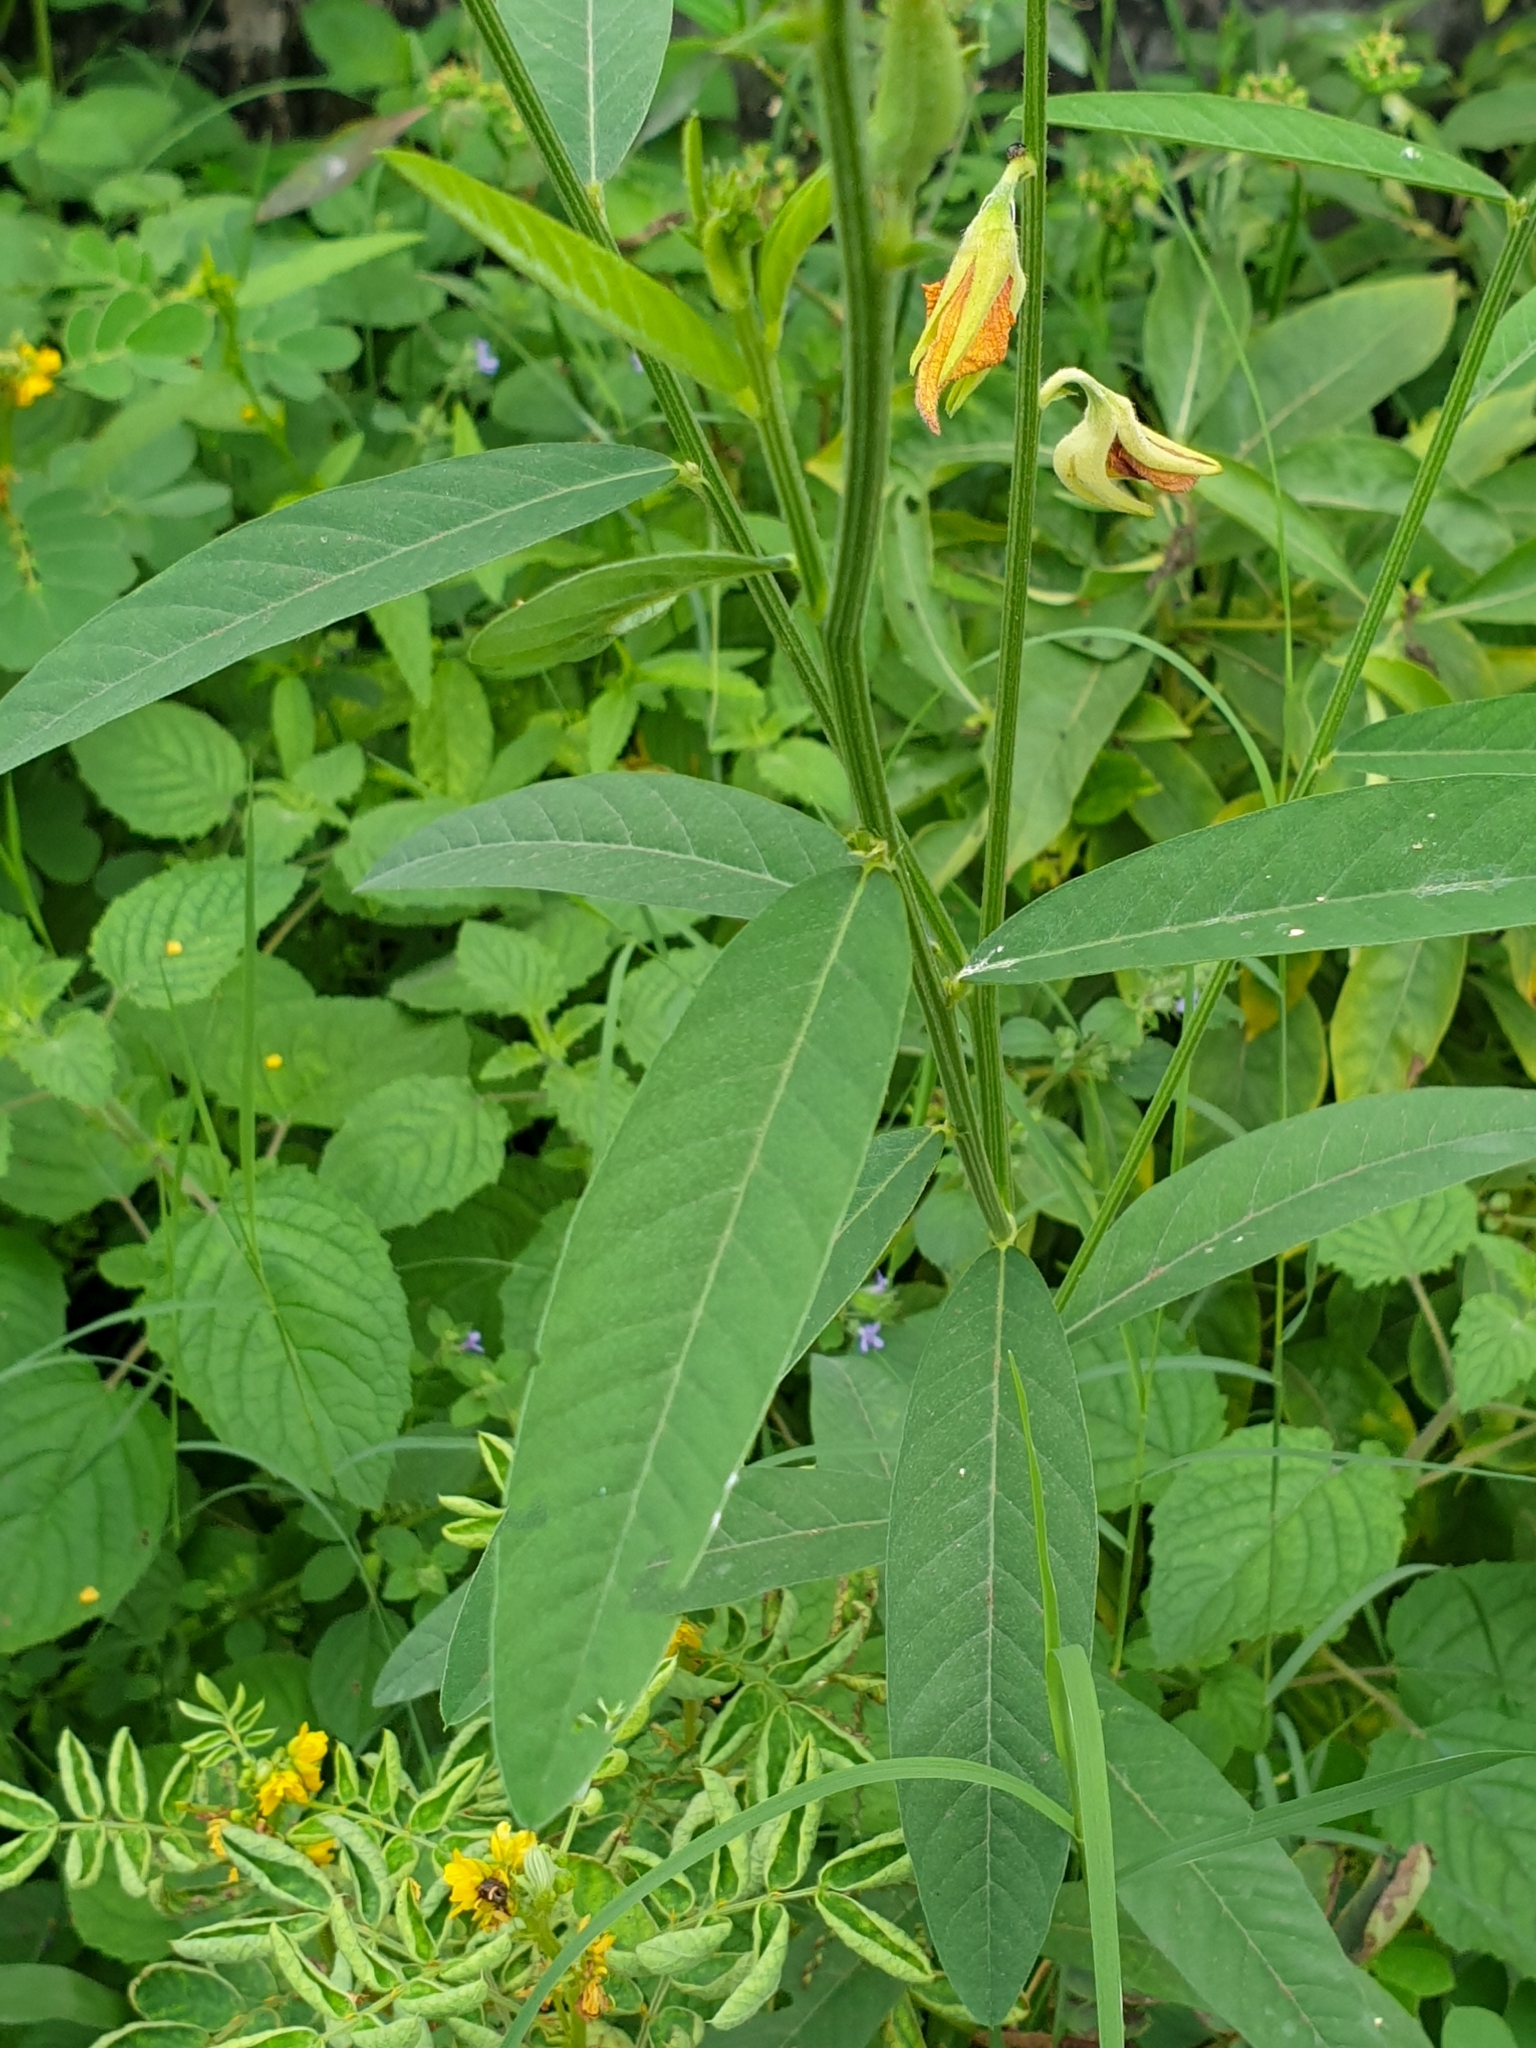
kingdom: Plantae
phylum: Tracheophyta
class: Magnoliopsida
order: Fabales
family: Fabaceae
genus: Crotalaria
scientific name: Crotalaria juncea
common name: Sunn hemp
